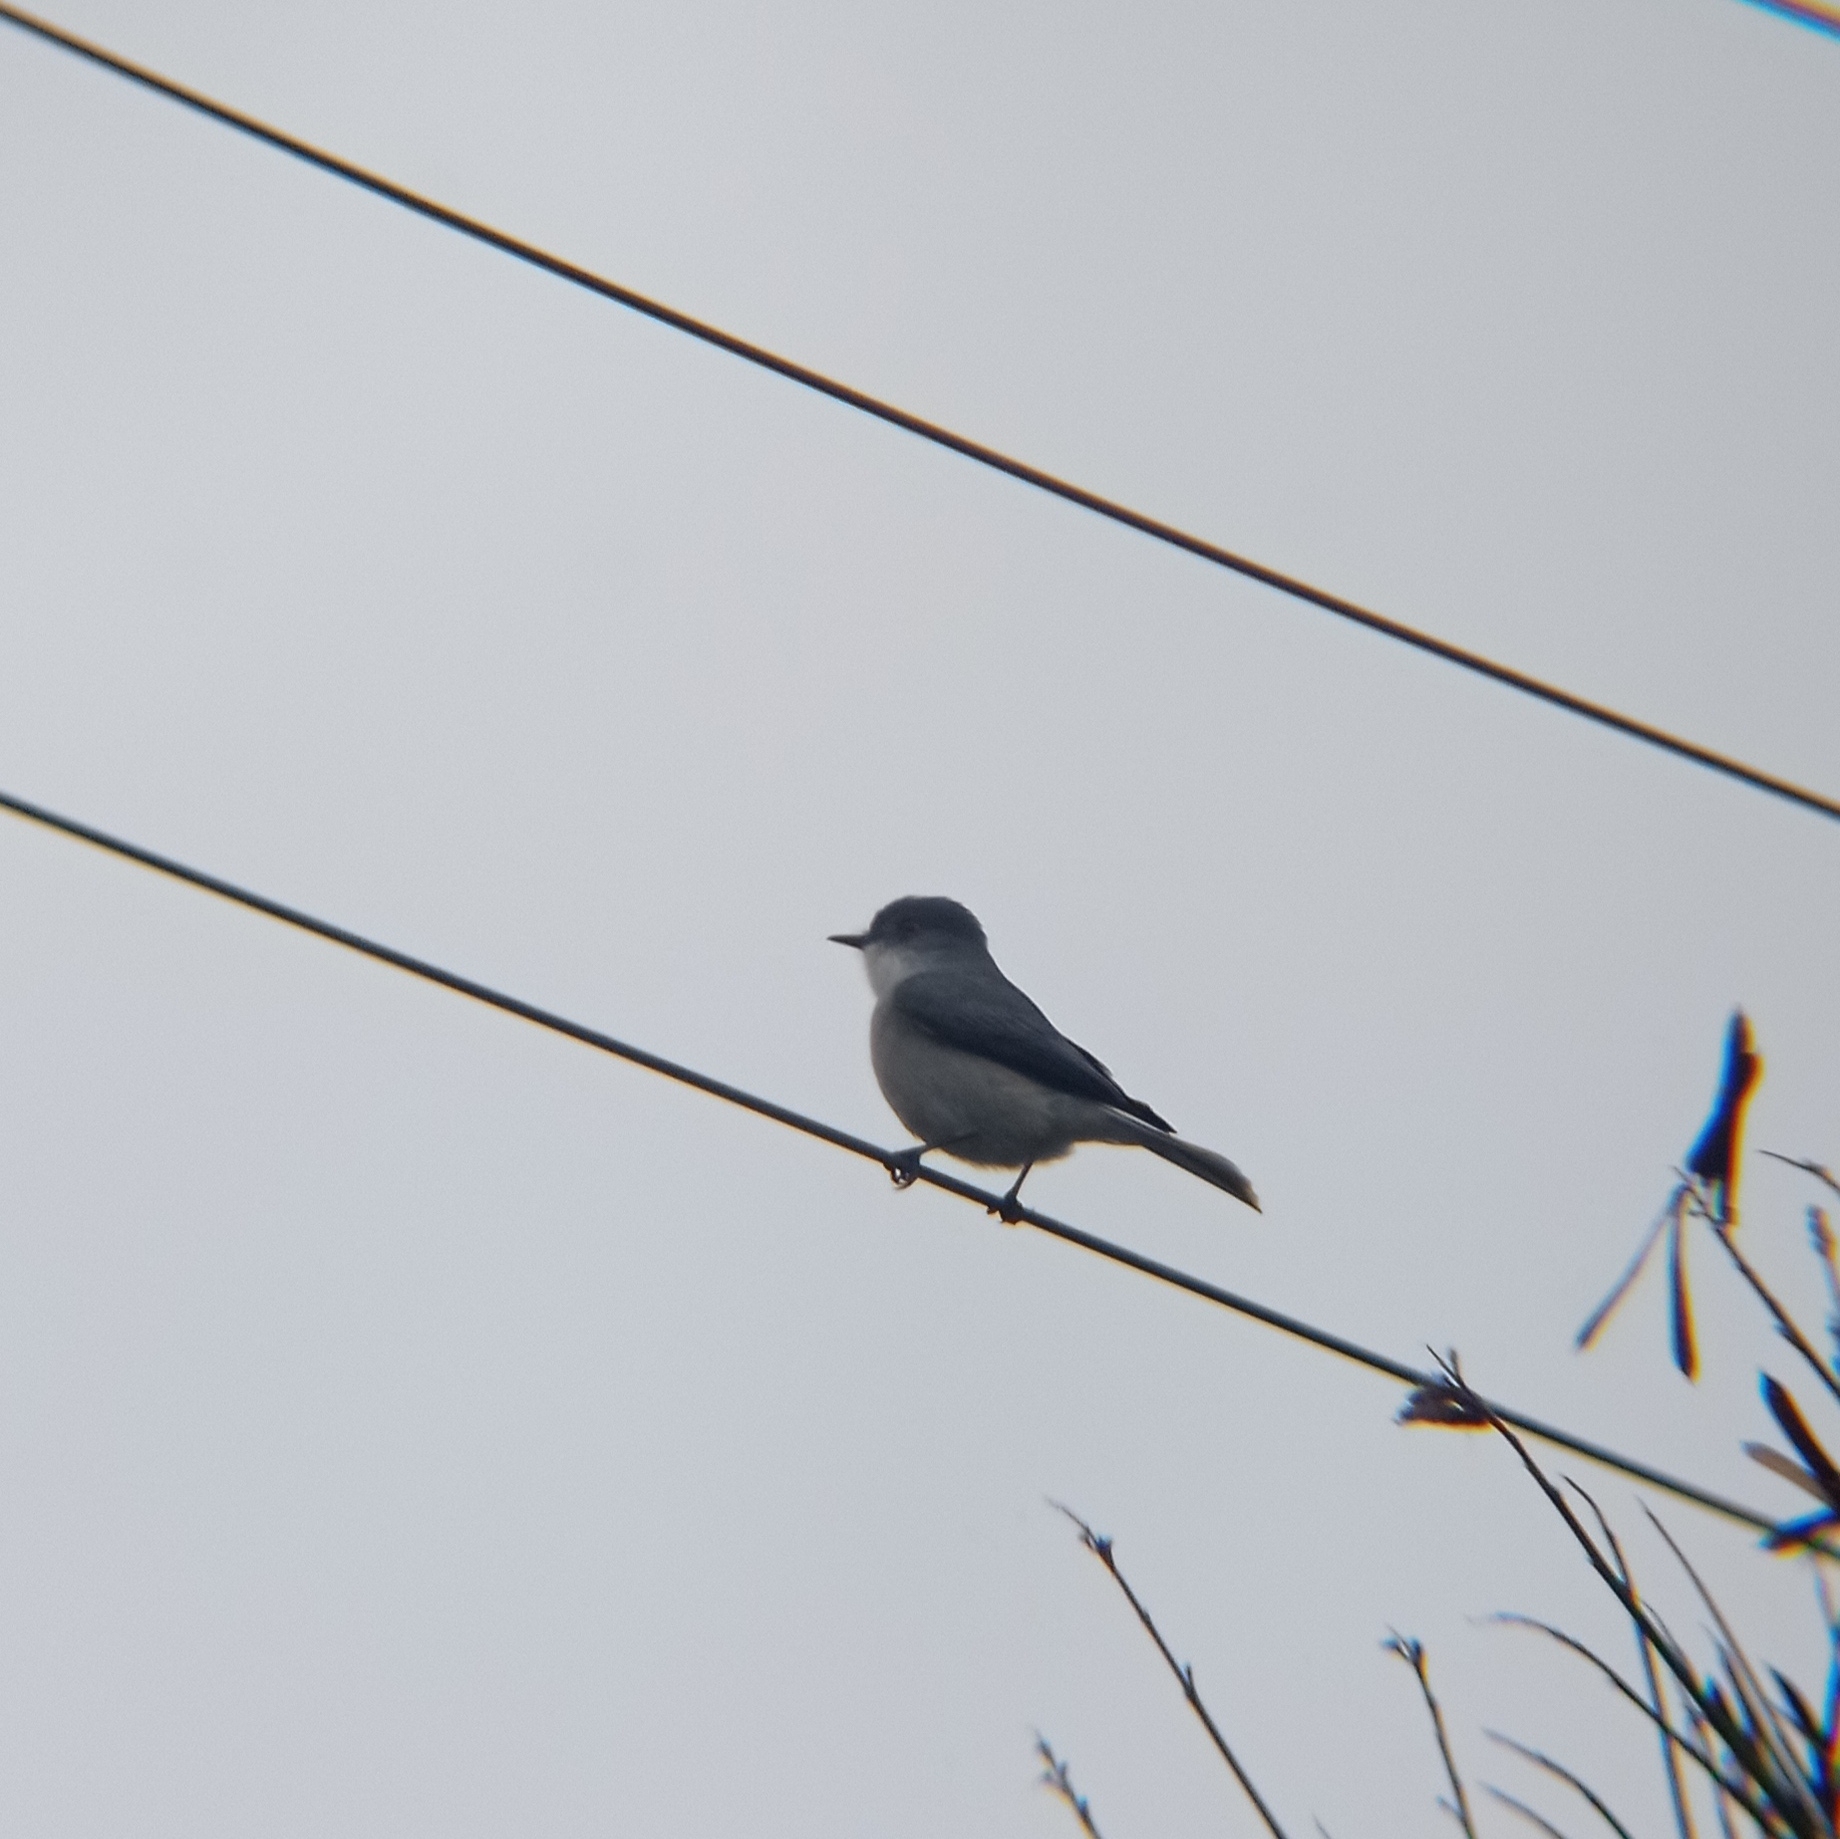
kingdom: Animalia
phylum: Chordata
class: Aves
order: Passeriformes
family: Tyrannidae
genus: Xolmis
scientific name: Xolmis pyrope
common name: Fire-eyed diucon
